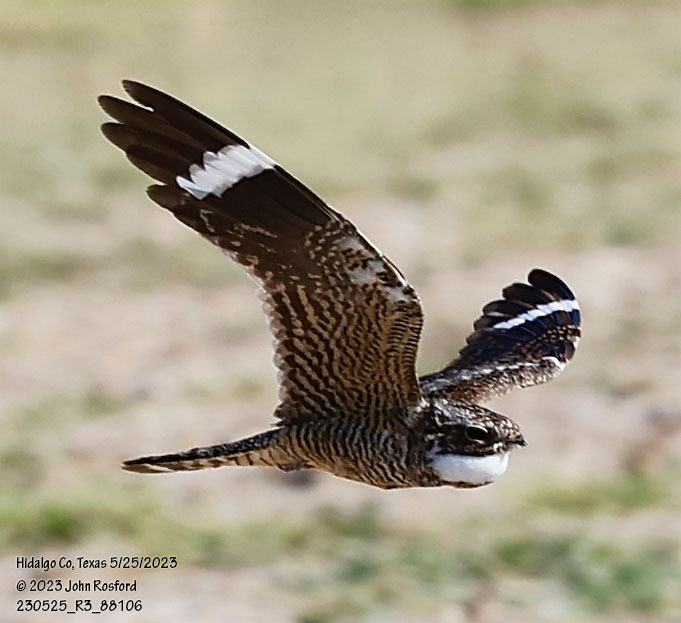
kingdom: Animalia
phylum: Chordata
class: Aves
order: Caprimulgiformes
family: Caprimulgidae
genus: Chordeiles
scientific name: Chordeiles acutipennis
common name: Lesser nighthawk
